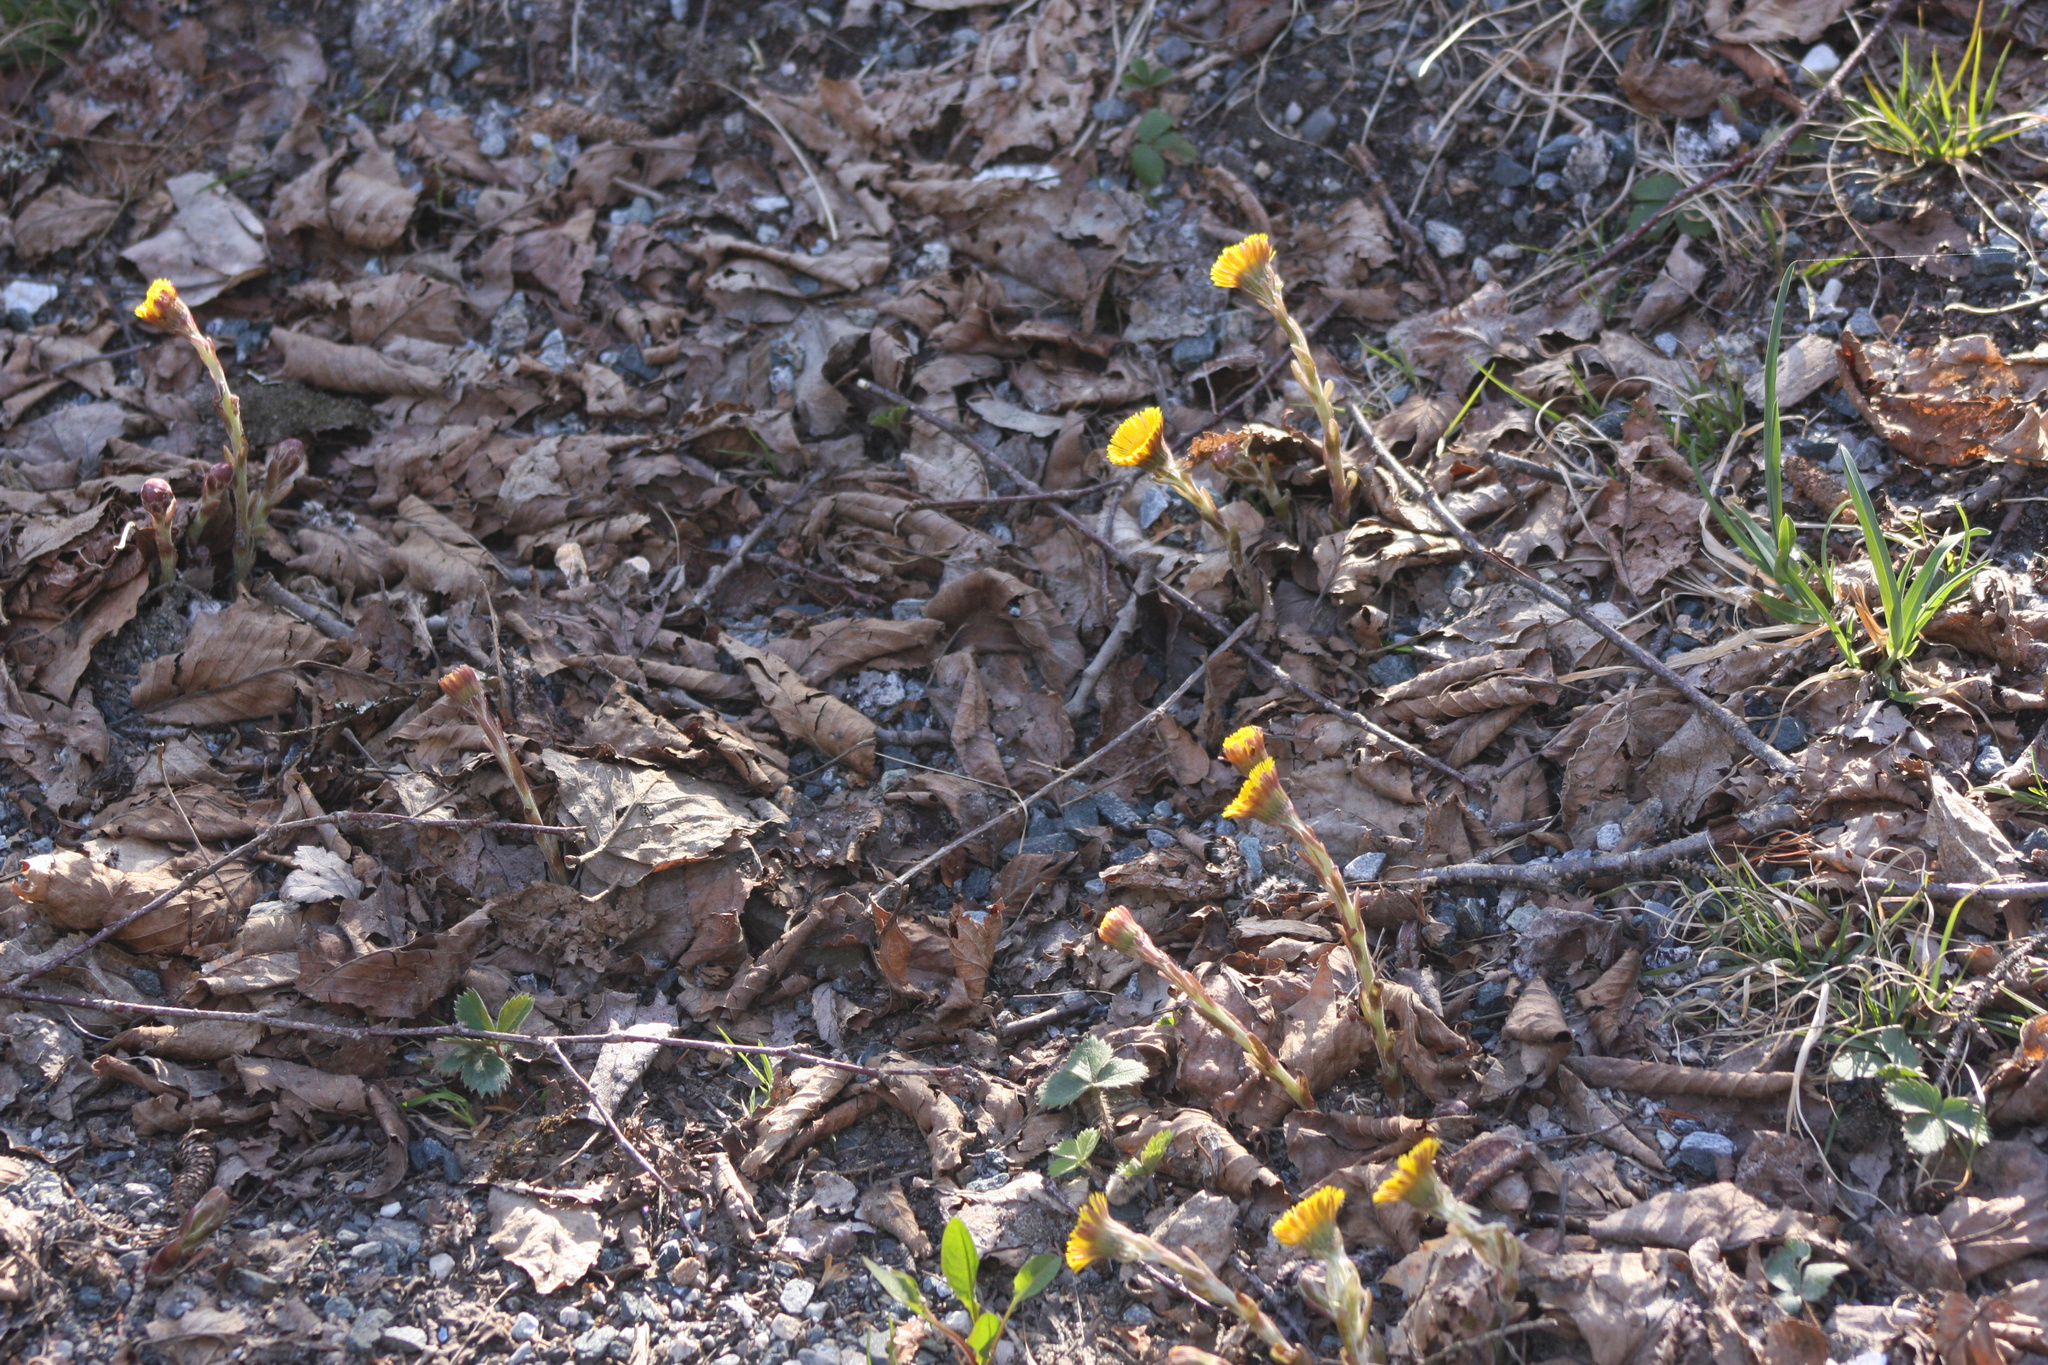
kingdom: Plantae
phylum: Tracheophyta
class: Magnoliopsida
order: Asterales
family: Asteraceae
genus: Tussilago
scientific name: Tussilago farfara
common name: Coltsfoot
